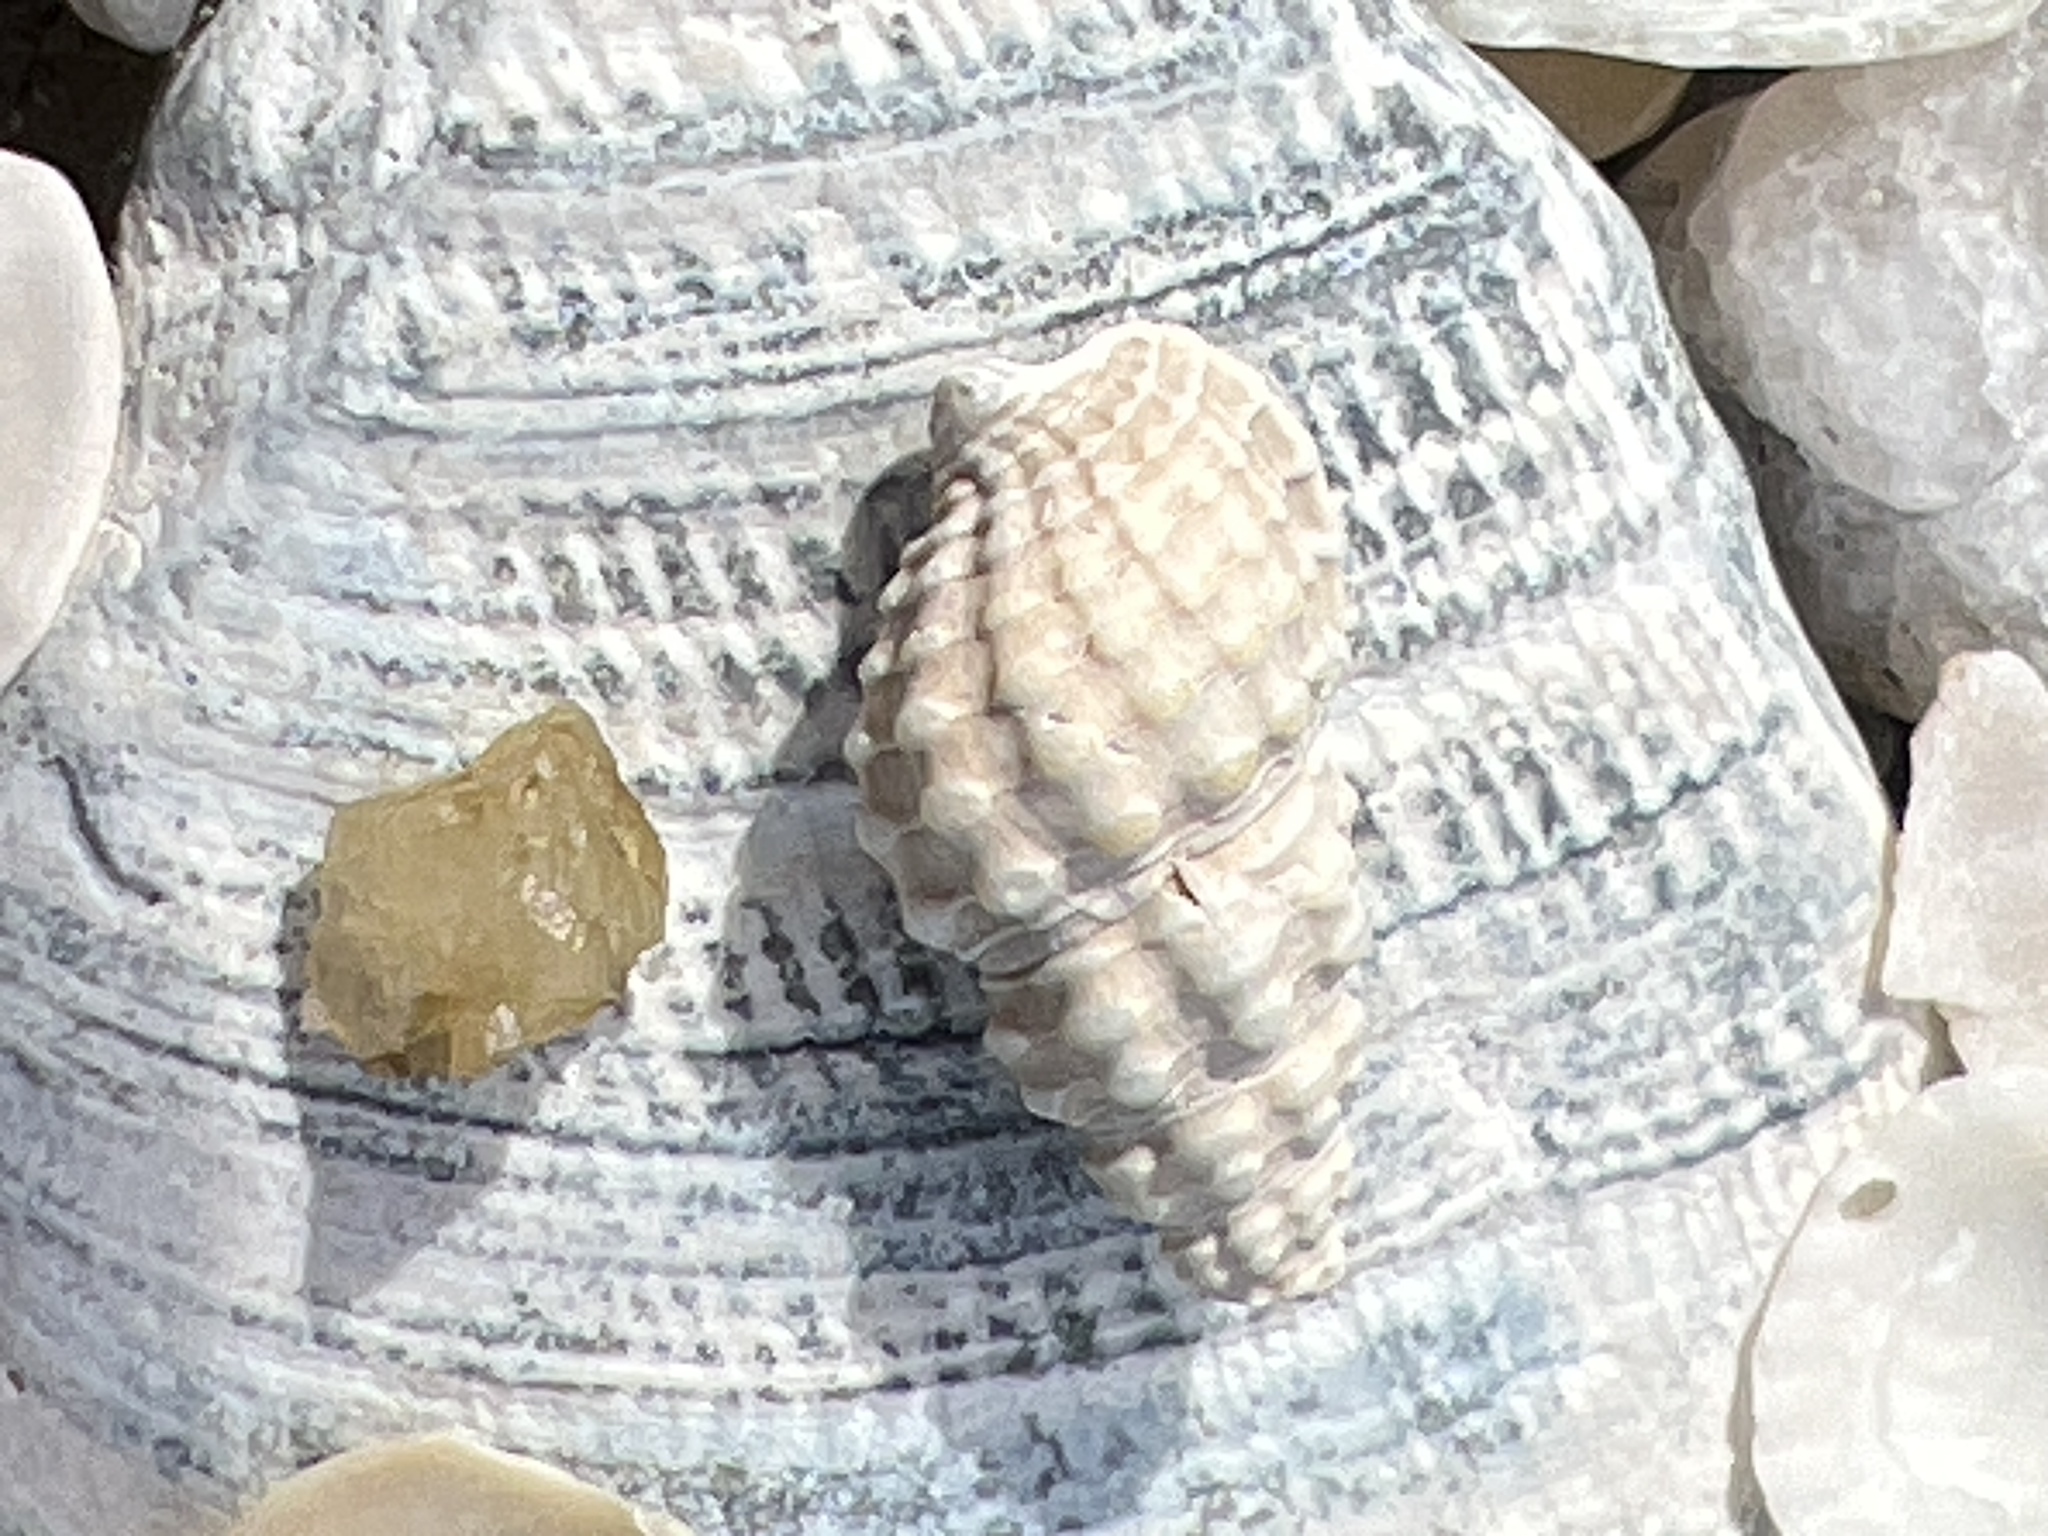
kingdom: Animalia
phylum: Mollusca
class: Gastropoda
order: Neogastropoda
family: Nassariidae
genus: Ilyanassa
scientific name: Ilyanassa trivittata
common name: Three-line mudsnail
